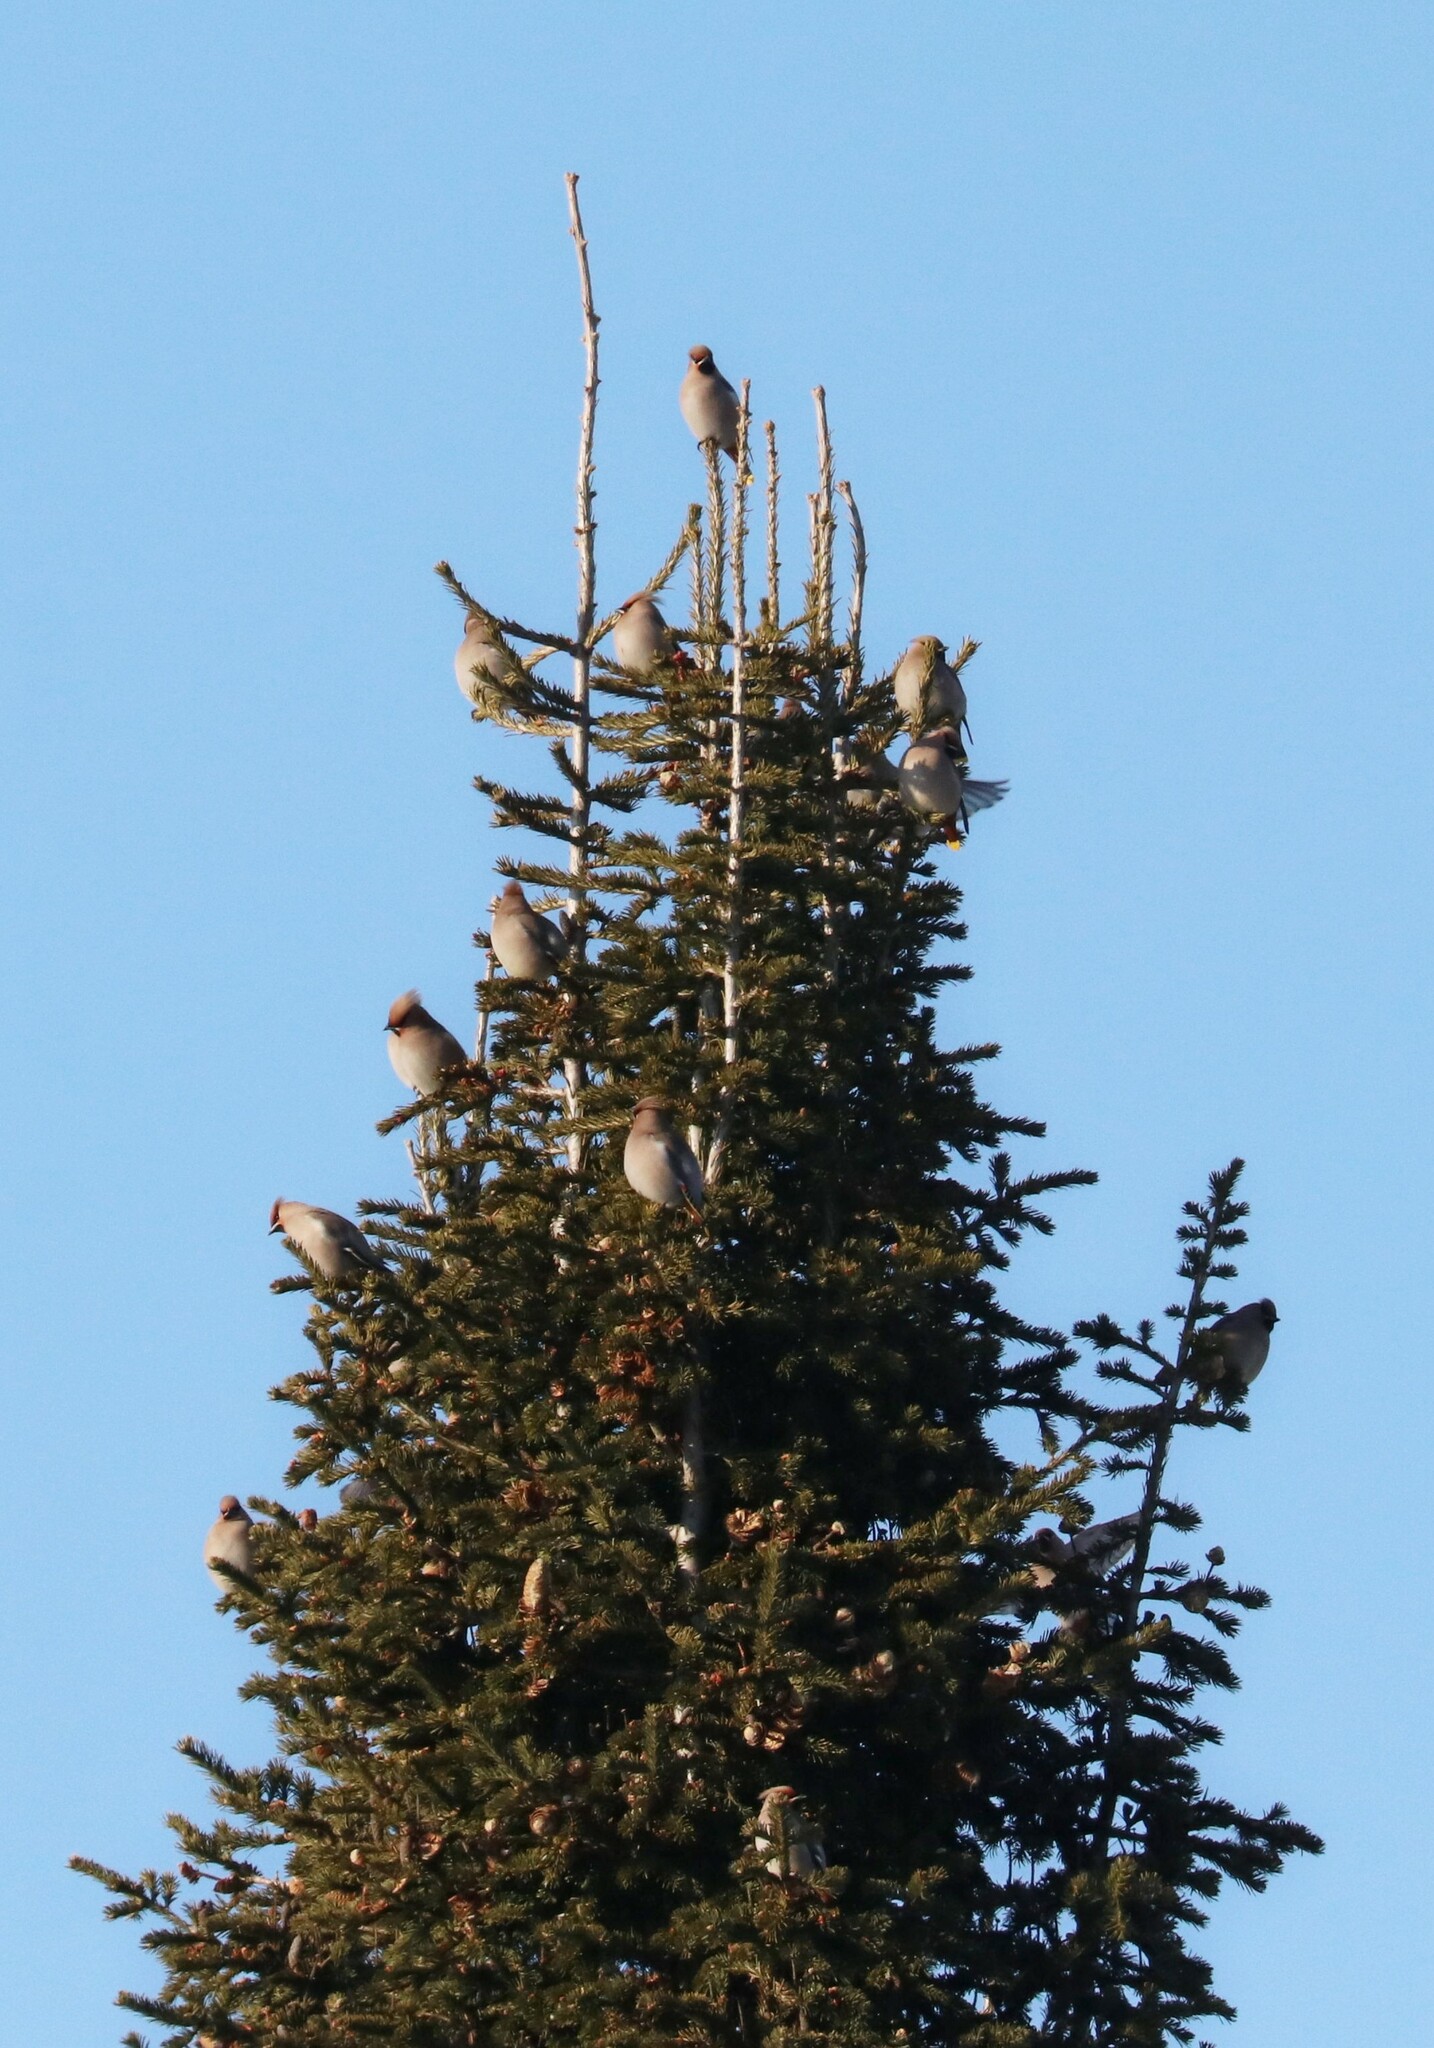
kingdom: Animalia
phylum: Chordata
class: Aves
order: Passeriformes
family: Bombycillidae
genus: Bombycilla
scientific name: Bombycilla garrulus
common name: Bohemian waxwing
